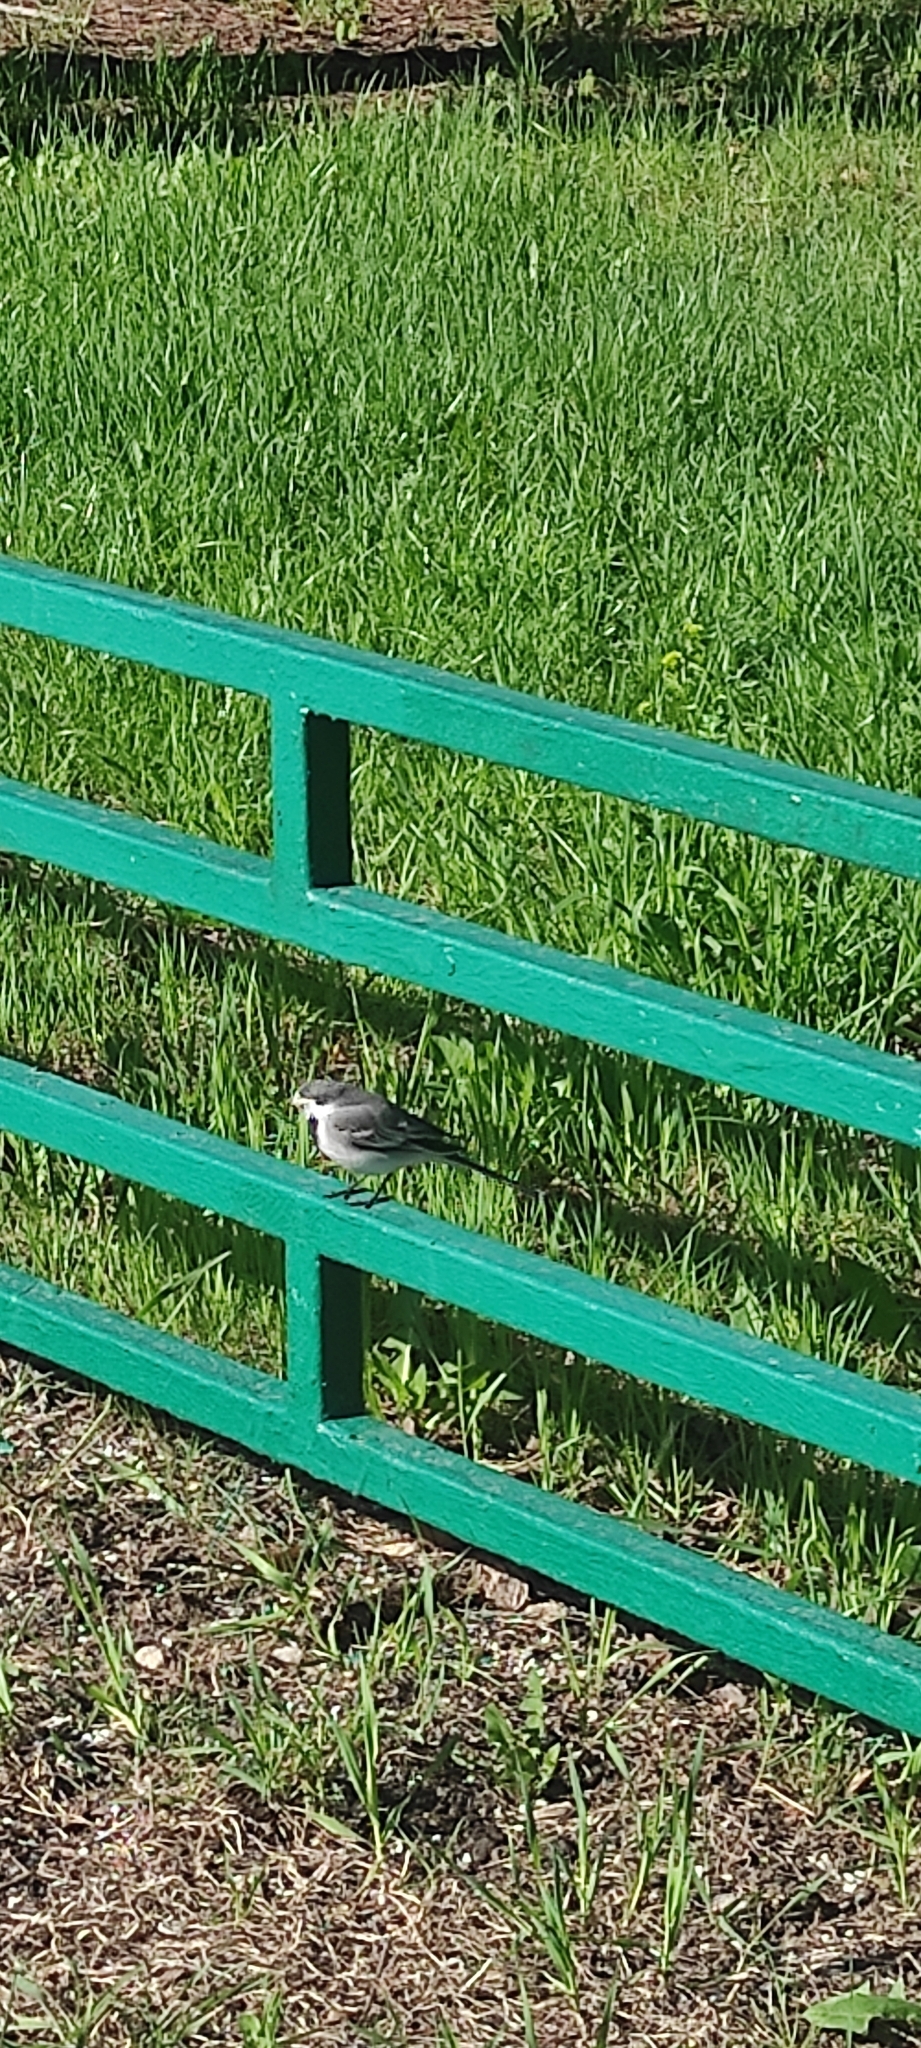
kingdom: Animalia
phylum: Chordata
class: Aves
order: Passeriformes
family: Motacillidae
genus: Motacilla
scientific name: Motacilla alba
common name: White wagtail
